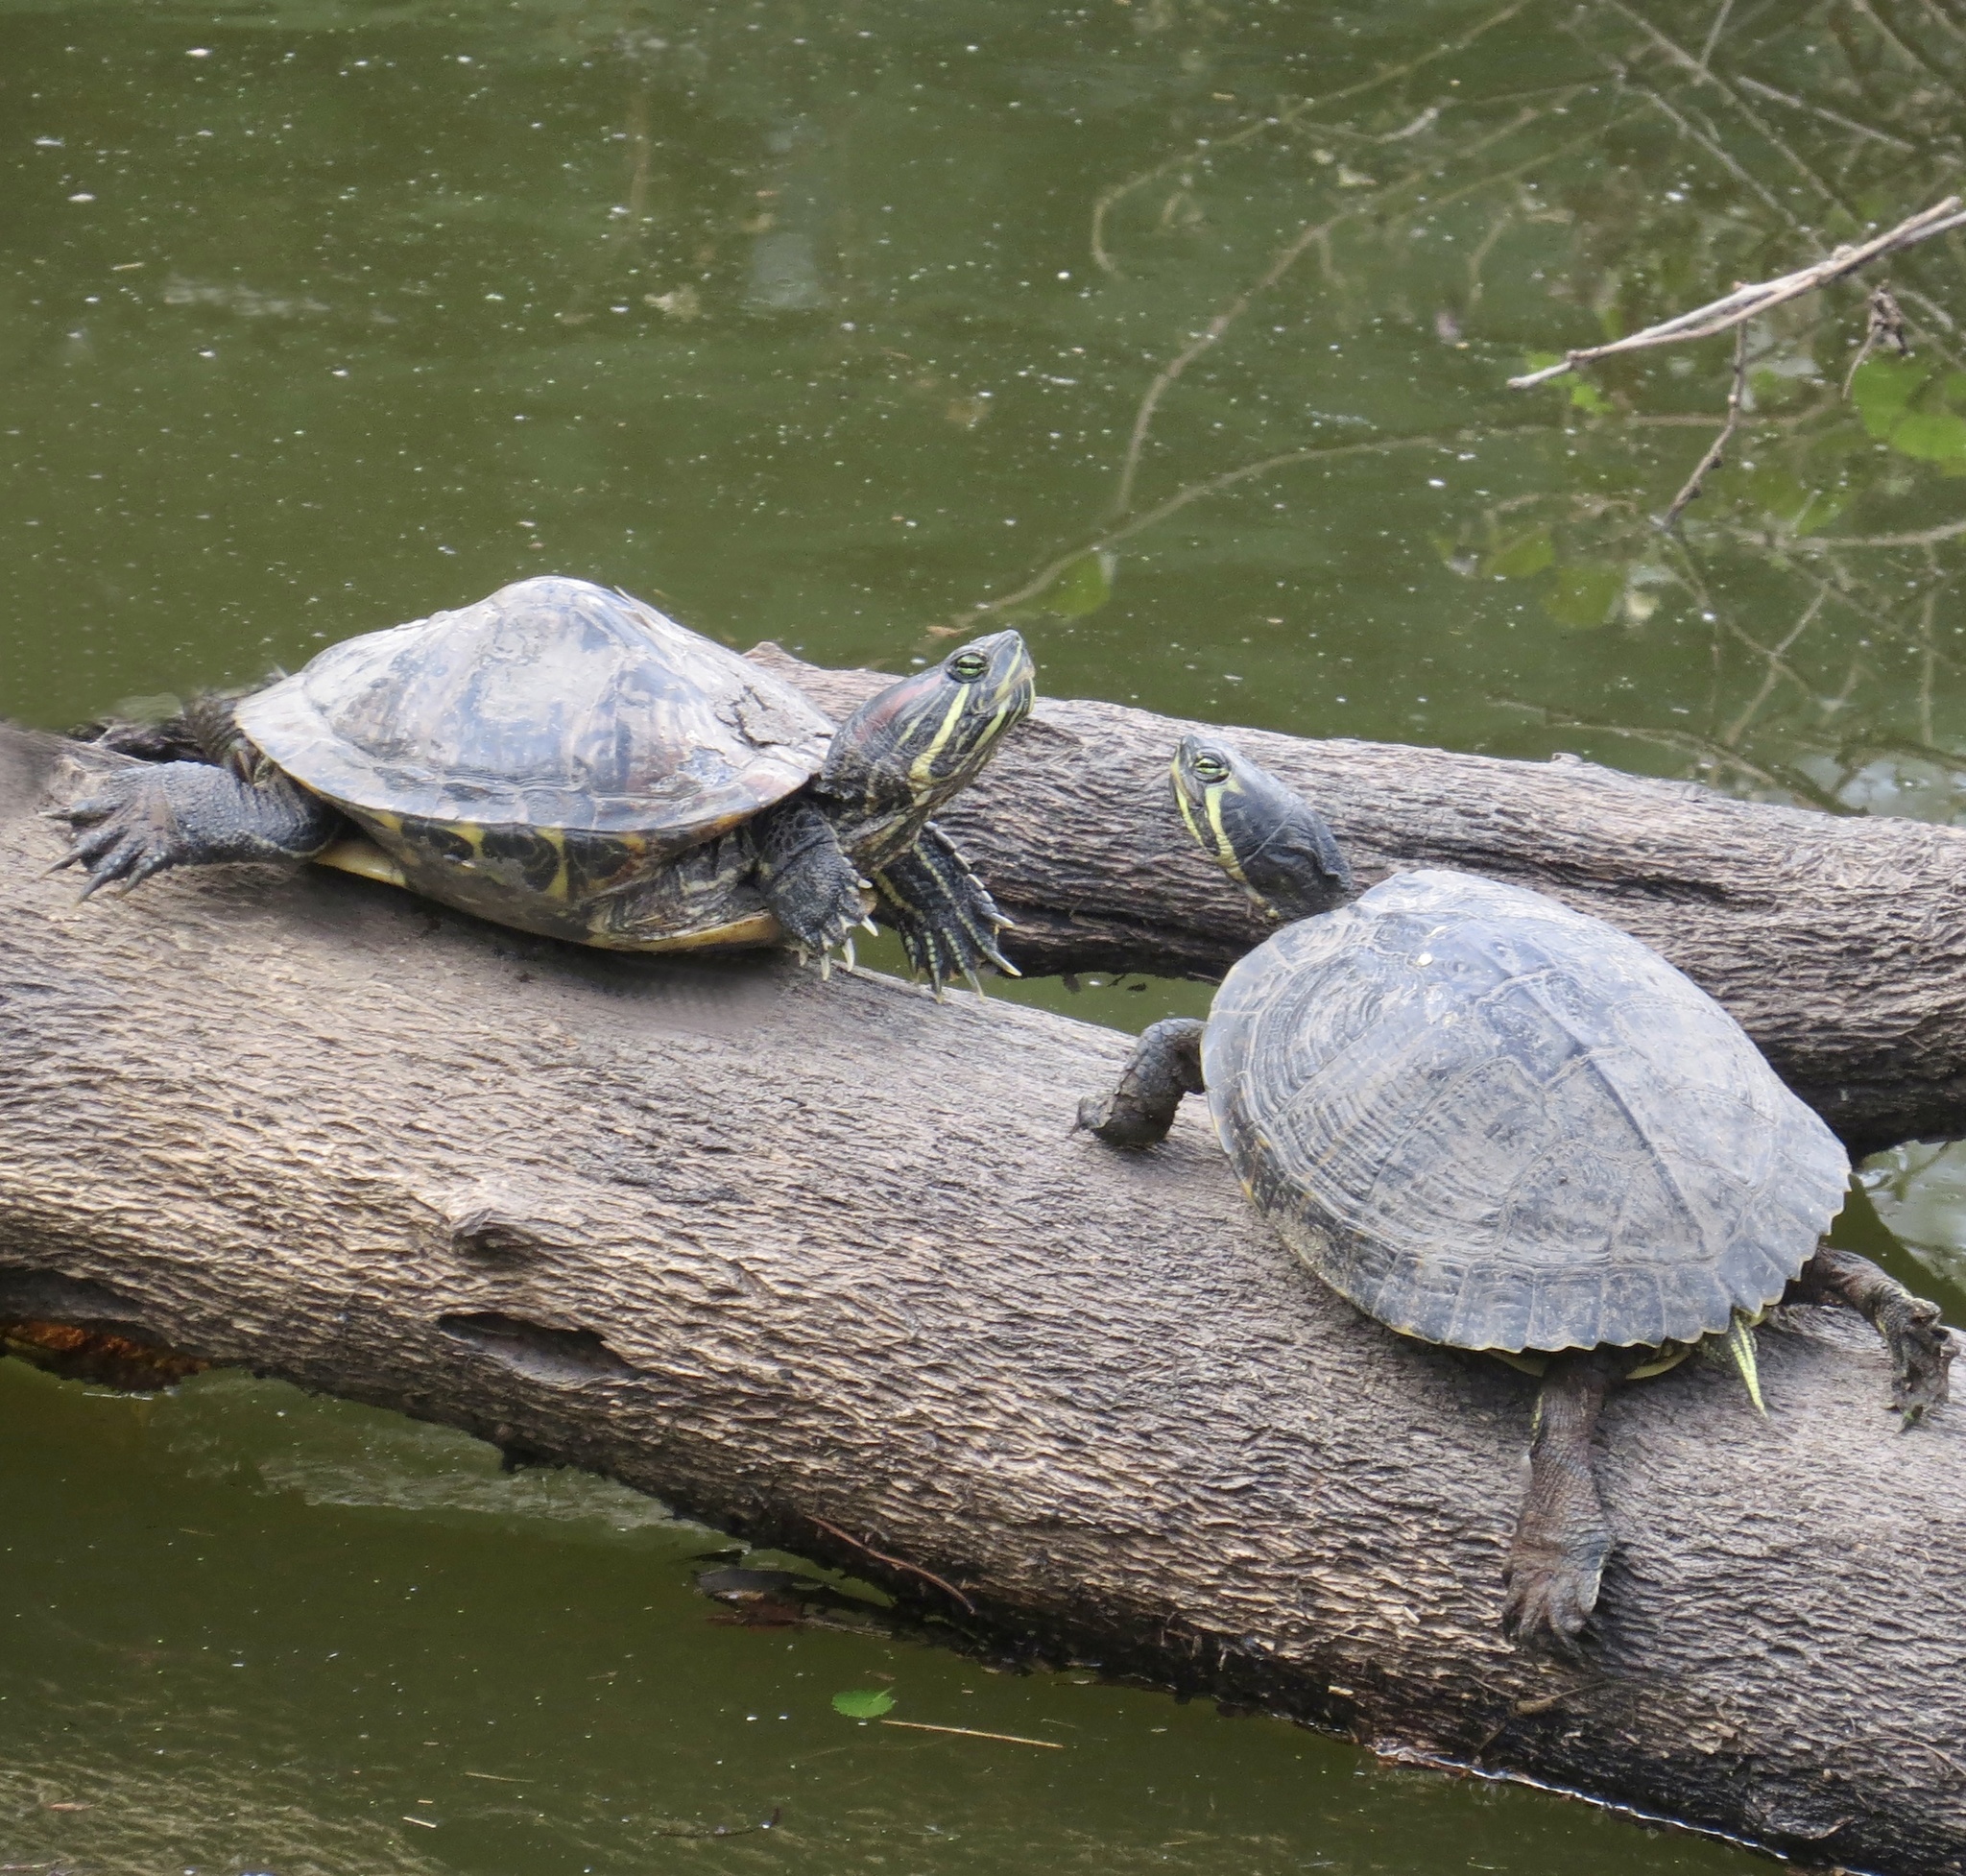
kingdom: Animalia
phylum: Chordata
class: Testudines
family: Emydidae
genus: Trachemys
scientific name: Trachemys scripta
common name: Slider
